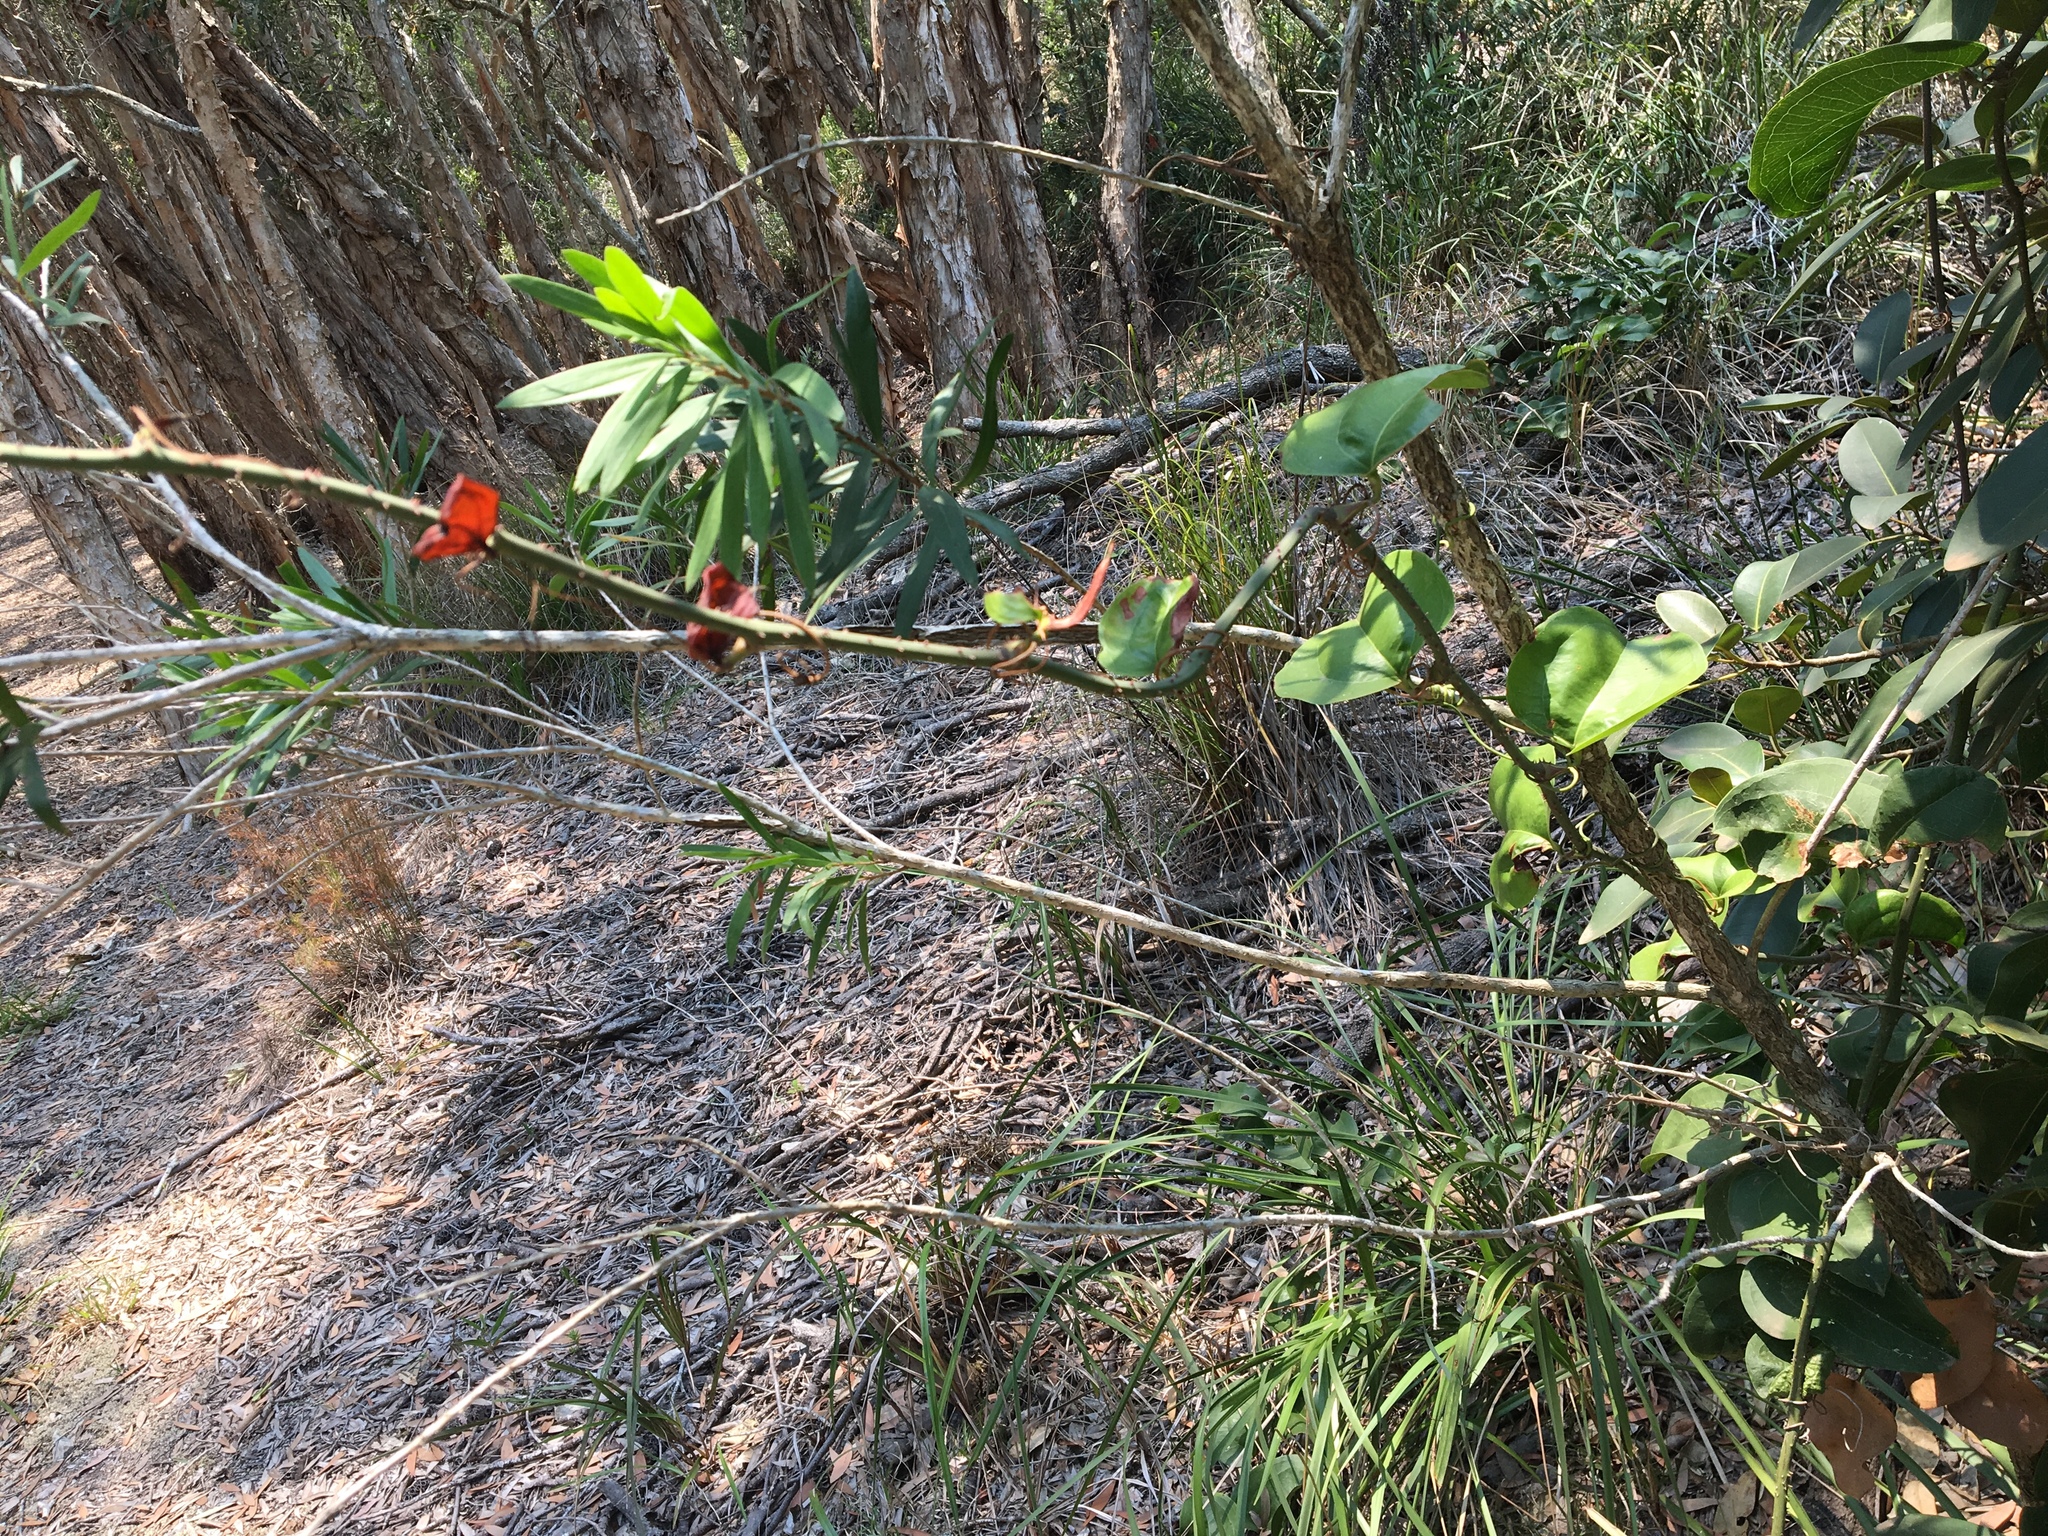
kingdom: Plantae
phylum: Tracheophyta
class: Liliopsida
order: Liliales
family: Smilacaceae
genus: Smilax
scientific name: Smilax australis
